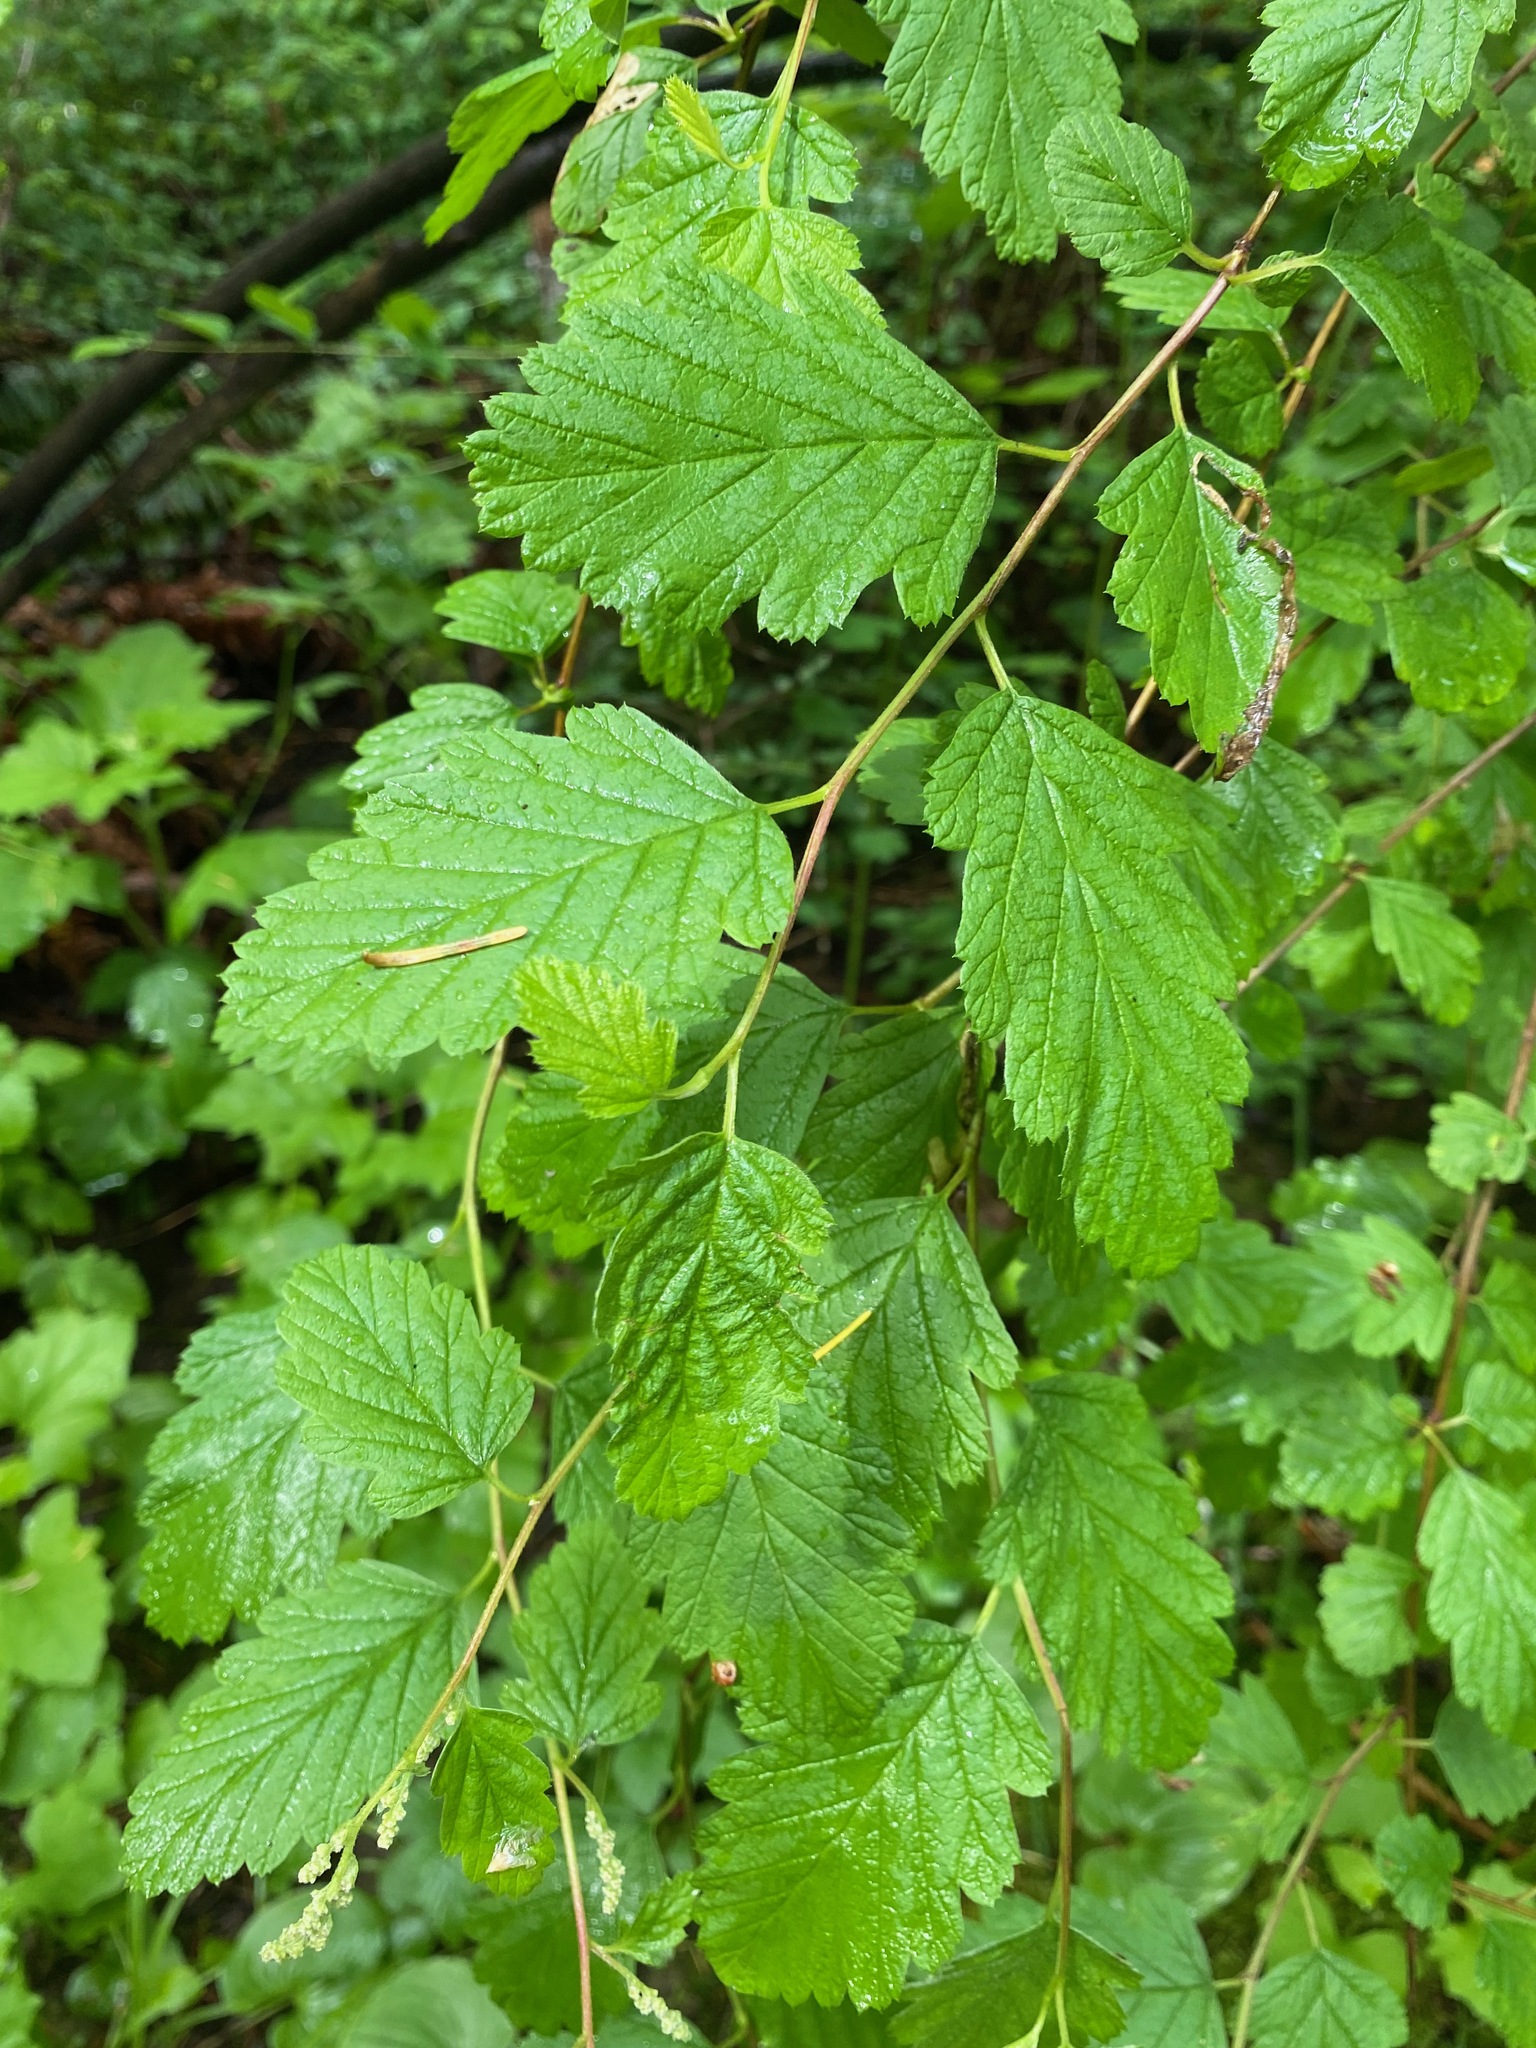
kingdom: Plantae
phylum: Tracheophyta
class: Magnoliopsida
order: Rosales
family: Rosaceae
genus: Holodiscus
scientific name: Holodiscus discolor
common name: Oceanspray
